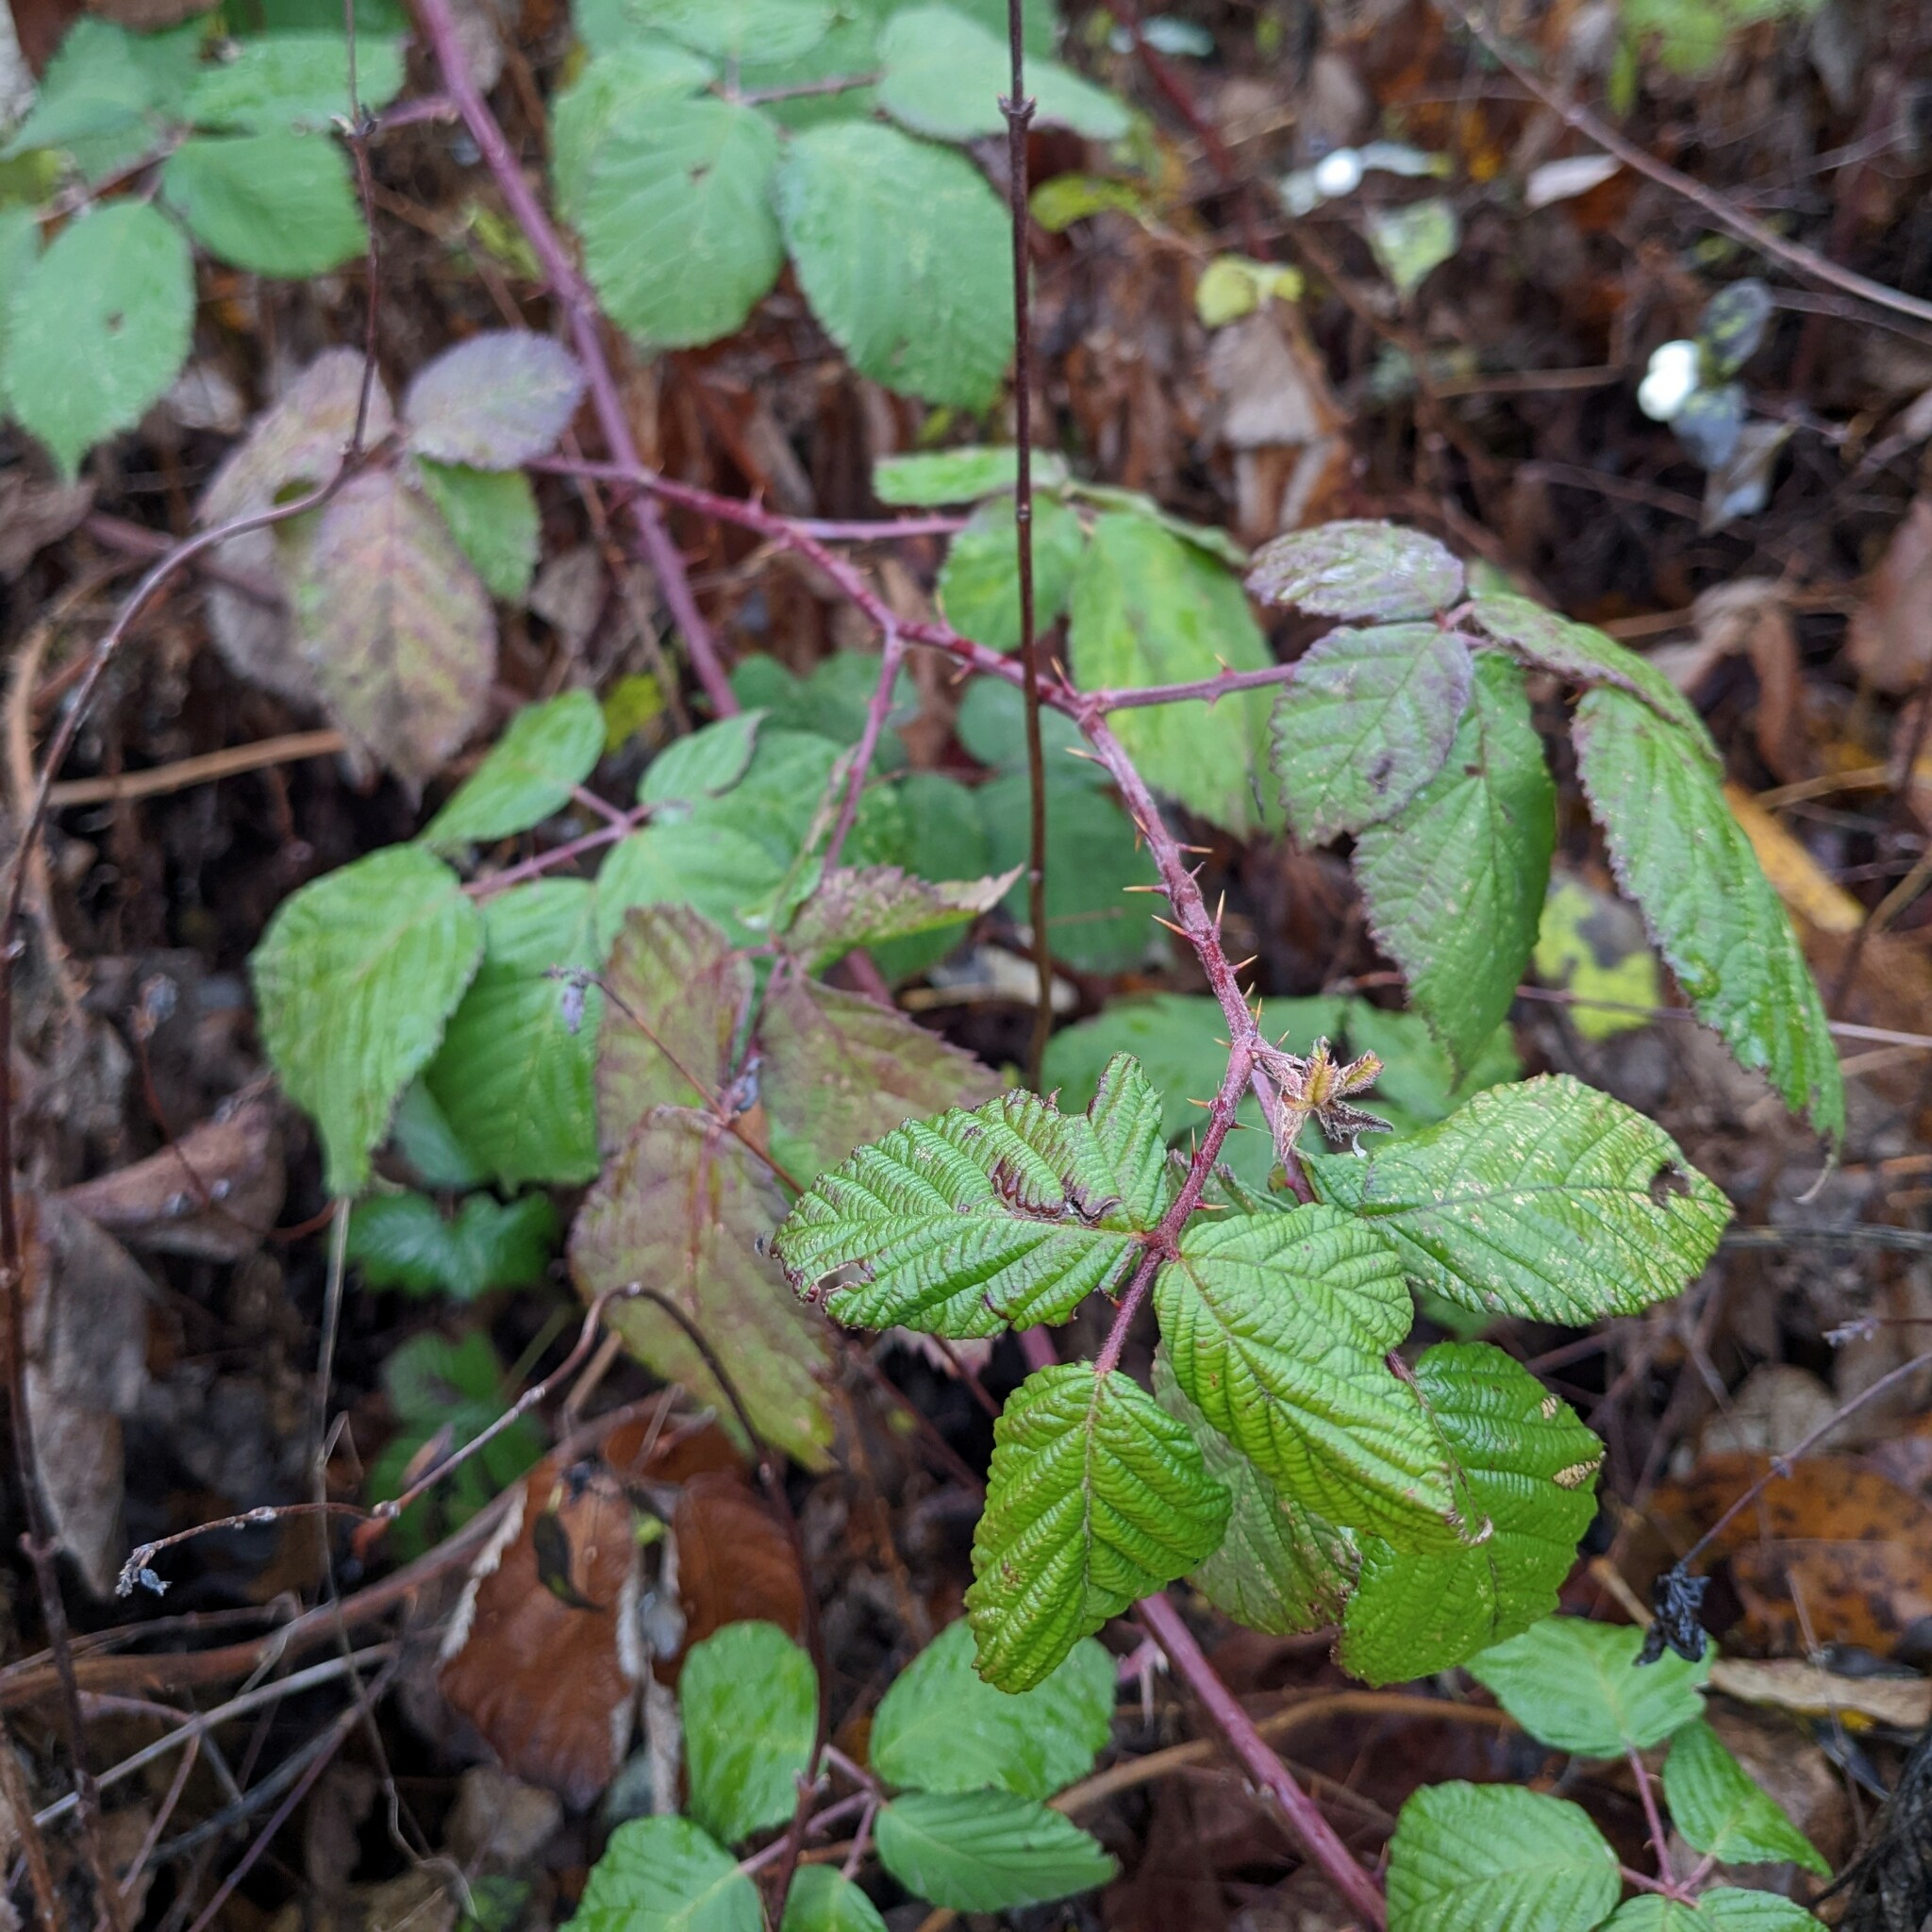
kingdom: Plantae
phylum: Tracheophyta
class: Magnoliopsida
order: Rosales
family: Rosaceae
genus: Rubus
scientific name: Rubus bifrons
